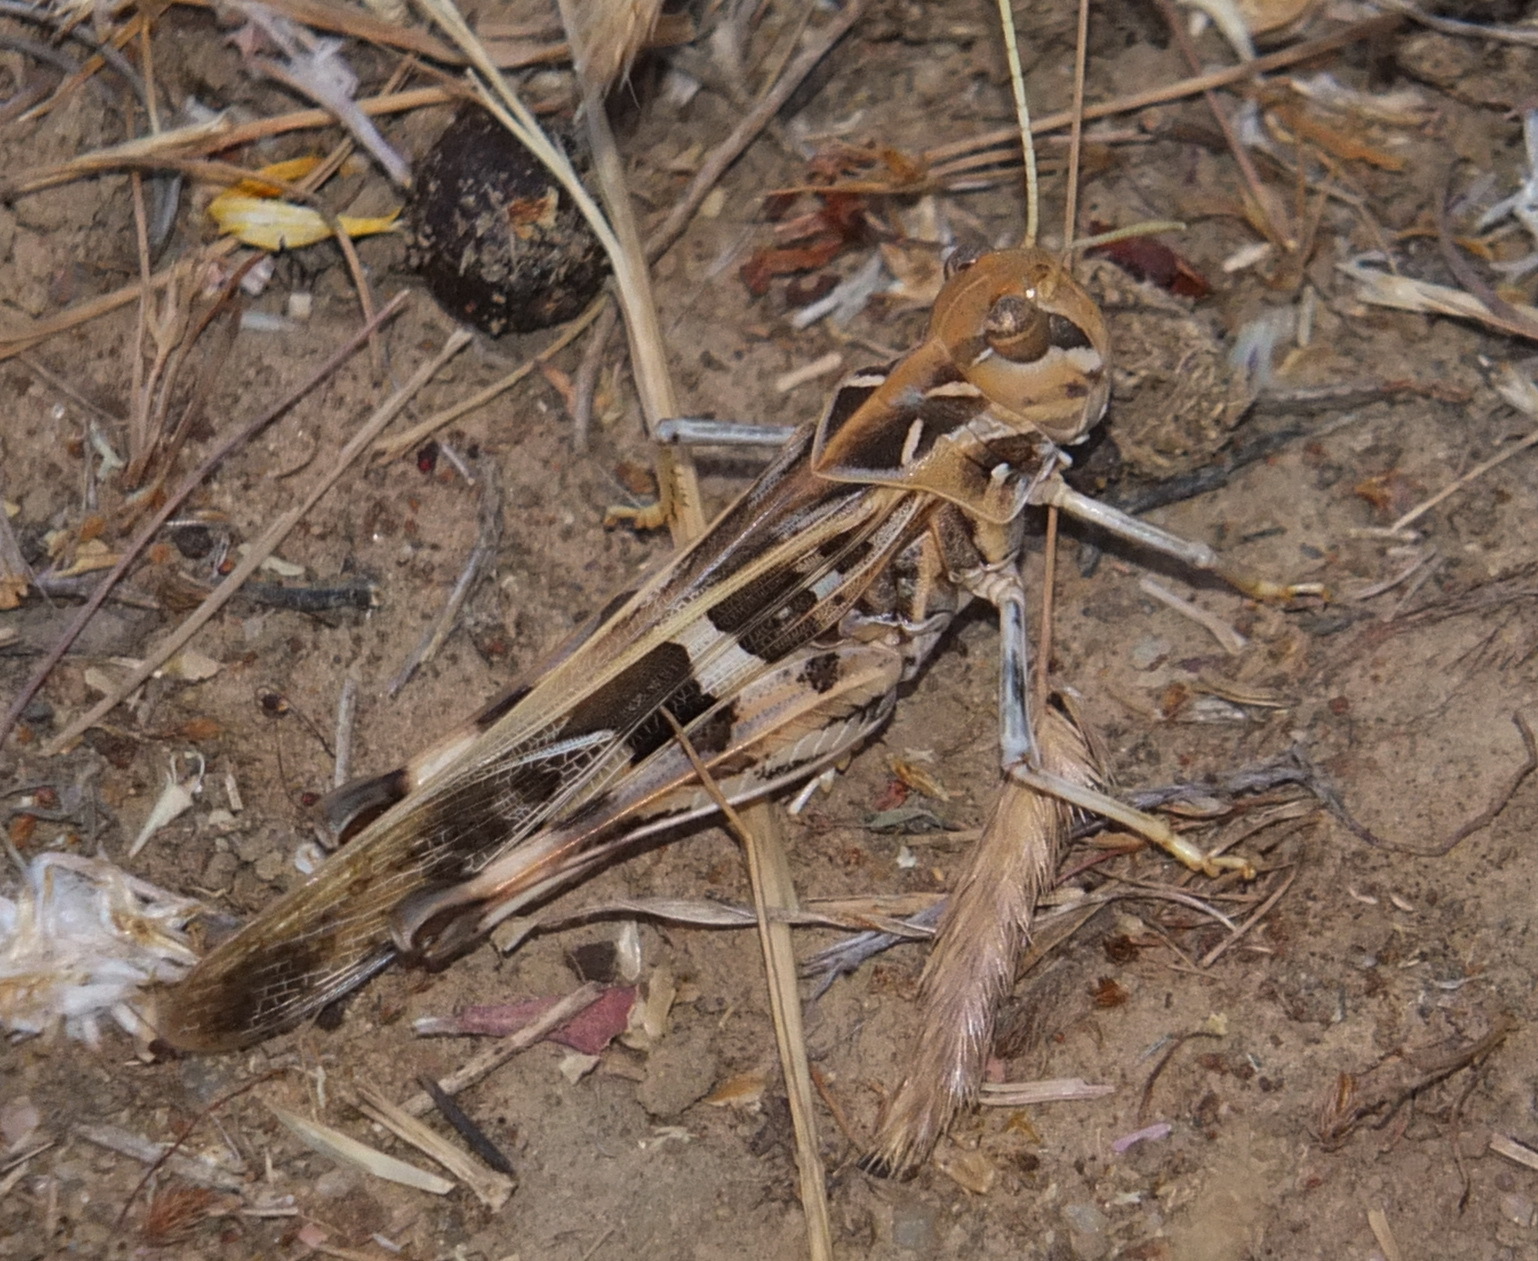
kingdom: Animalia
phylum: Arthropoda
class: Insecta
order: Orthoptera
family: Acrididae
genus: Oedaleus
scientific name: Oedaleus decorus
